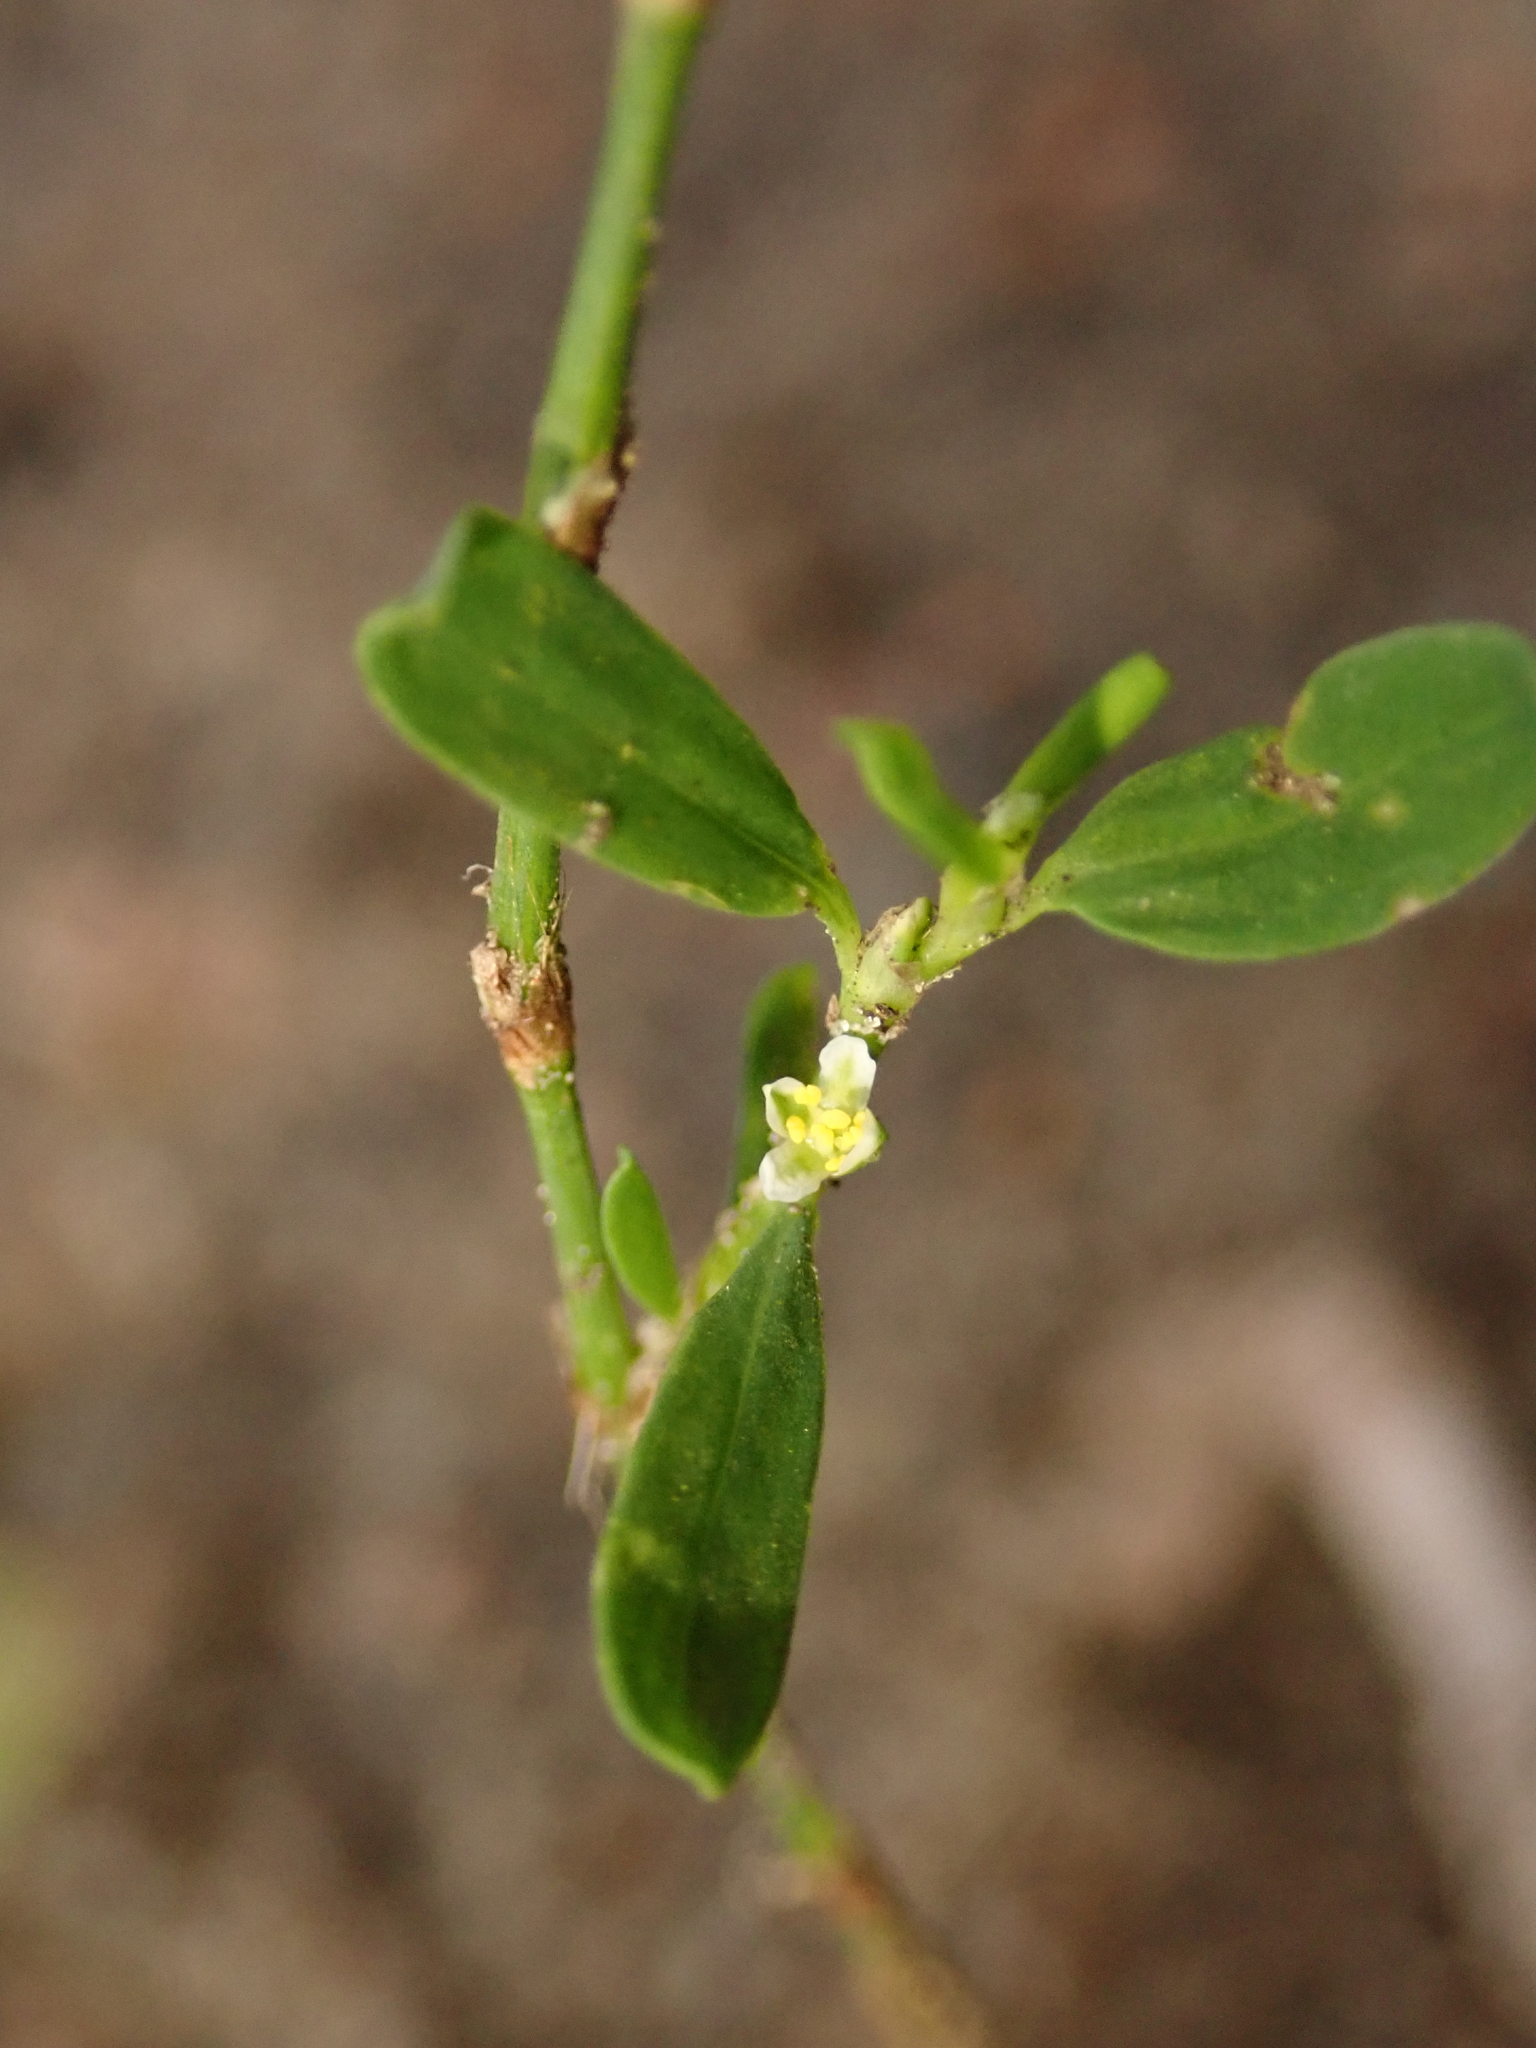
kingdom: Plantae
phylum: Tracheophyta
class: Magnoliopsida
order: Caryophyllales
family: Polygonaceae
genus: Polygonum
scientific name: Polygonum aviculare
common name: Prostrate knotweed
